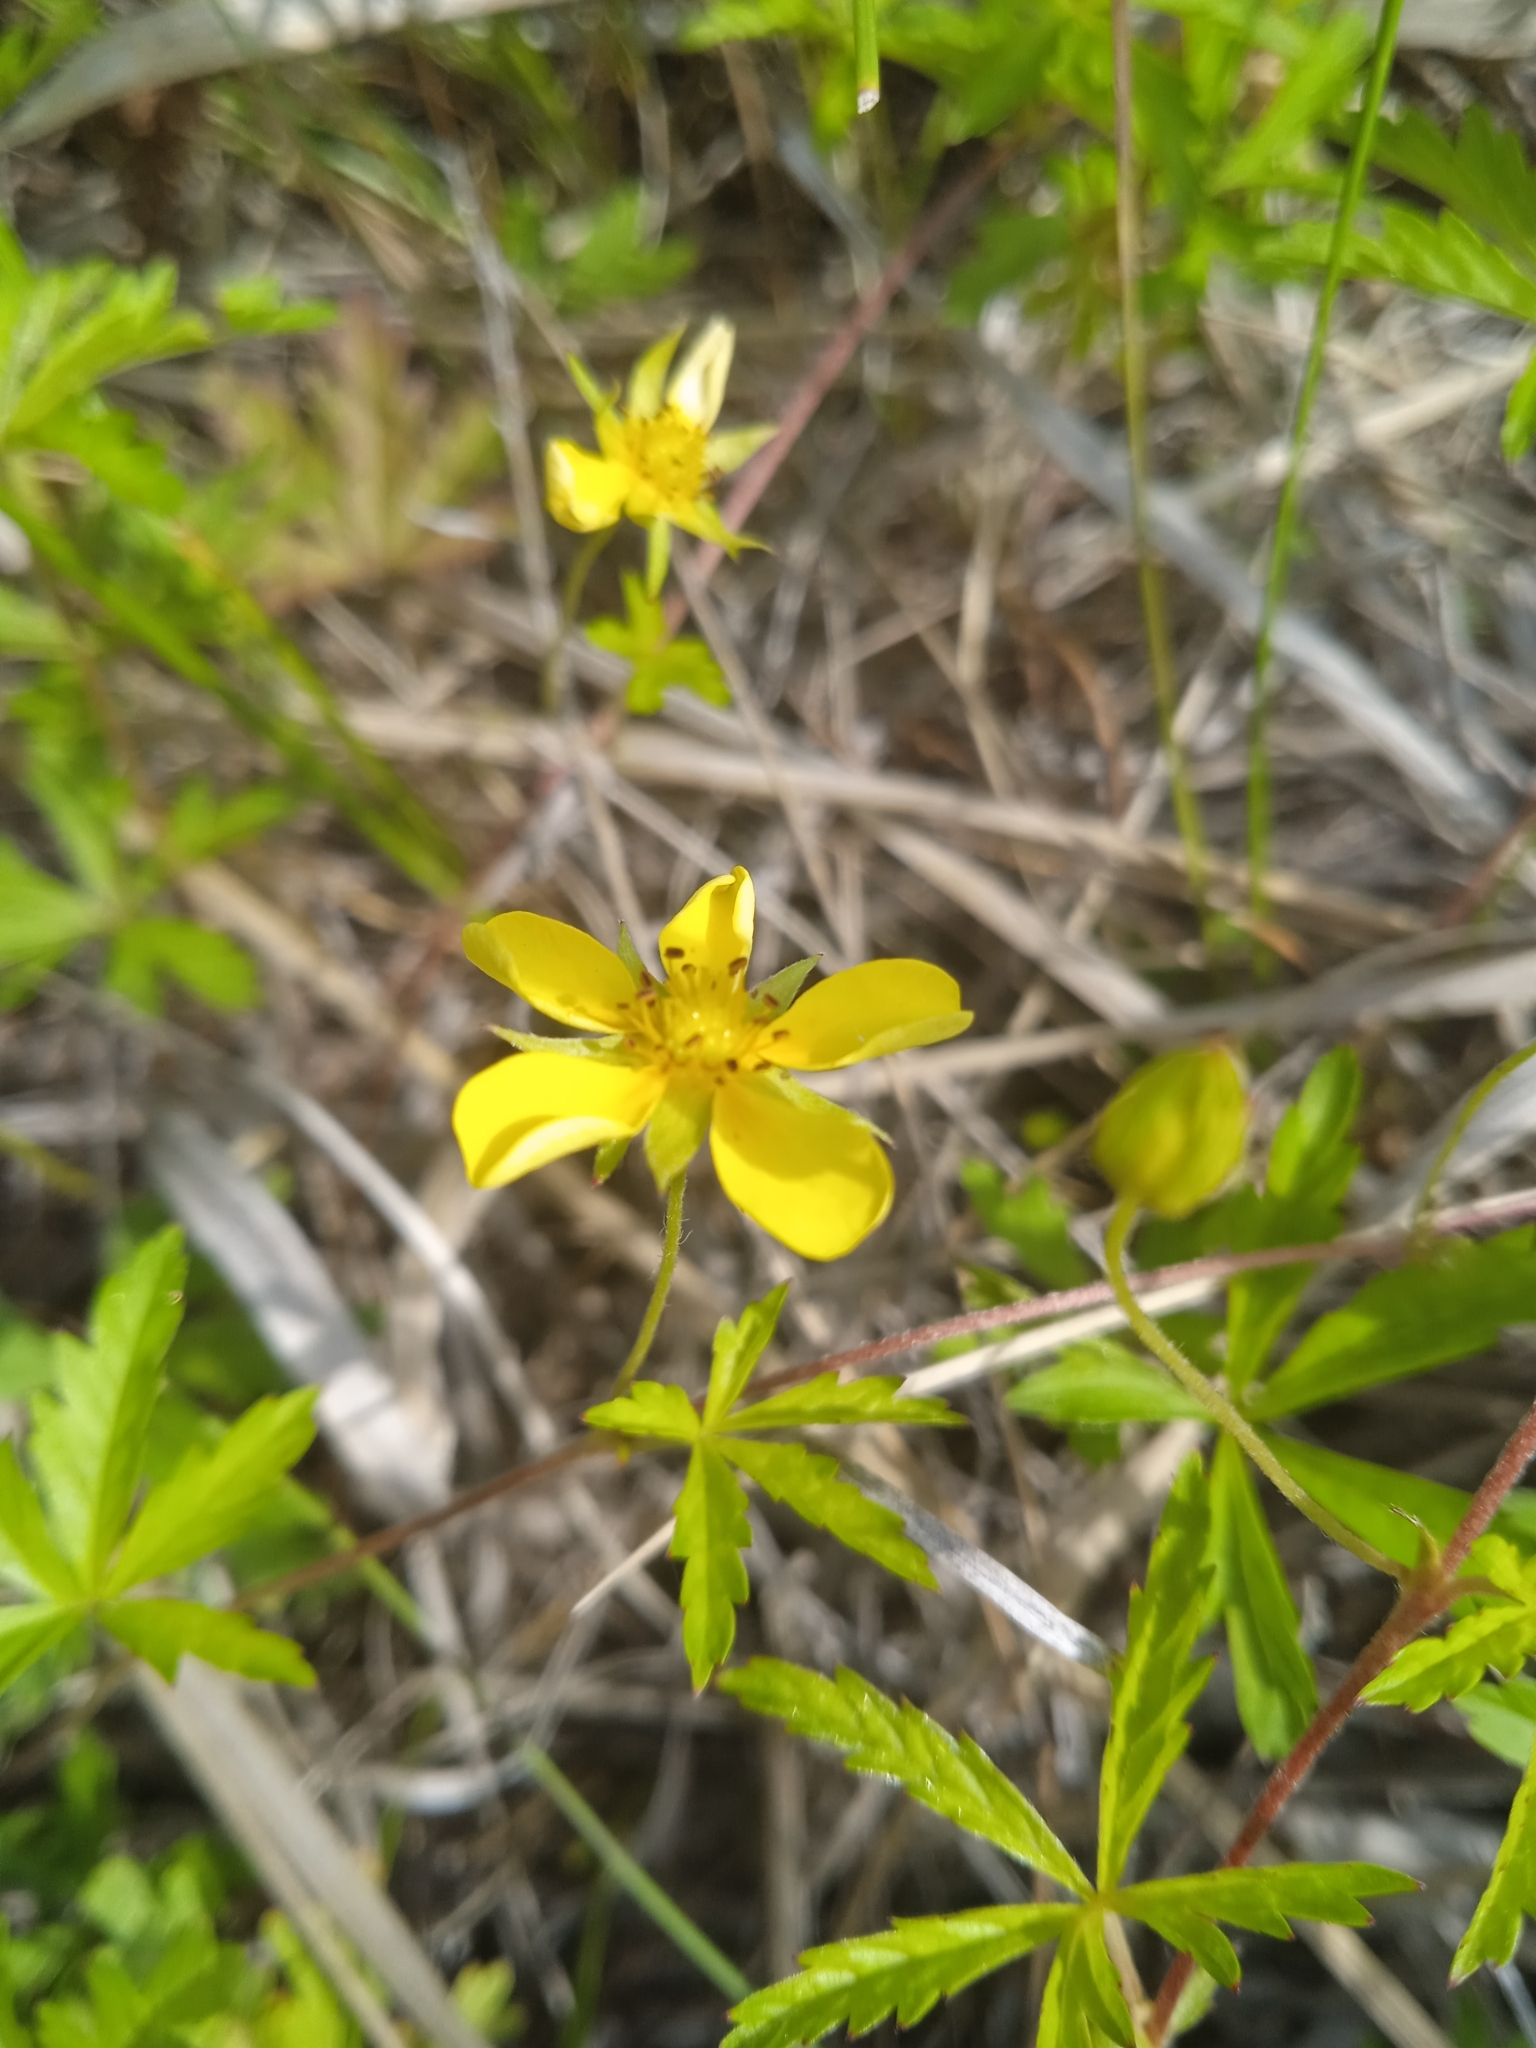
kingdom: Plantae
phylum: Tracheophyta
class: Magnoliopsida
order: Rosales
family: Rosaceae
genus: Potentilla
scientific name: Potentilla flagellaris
